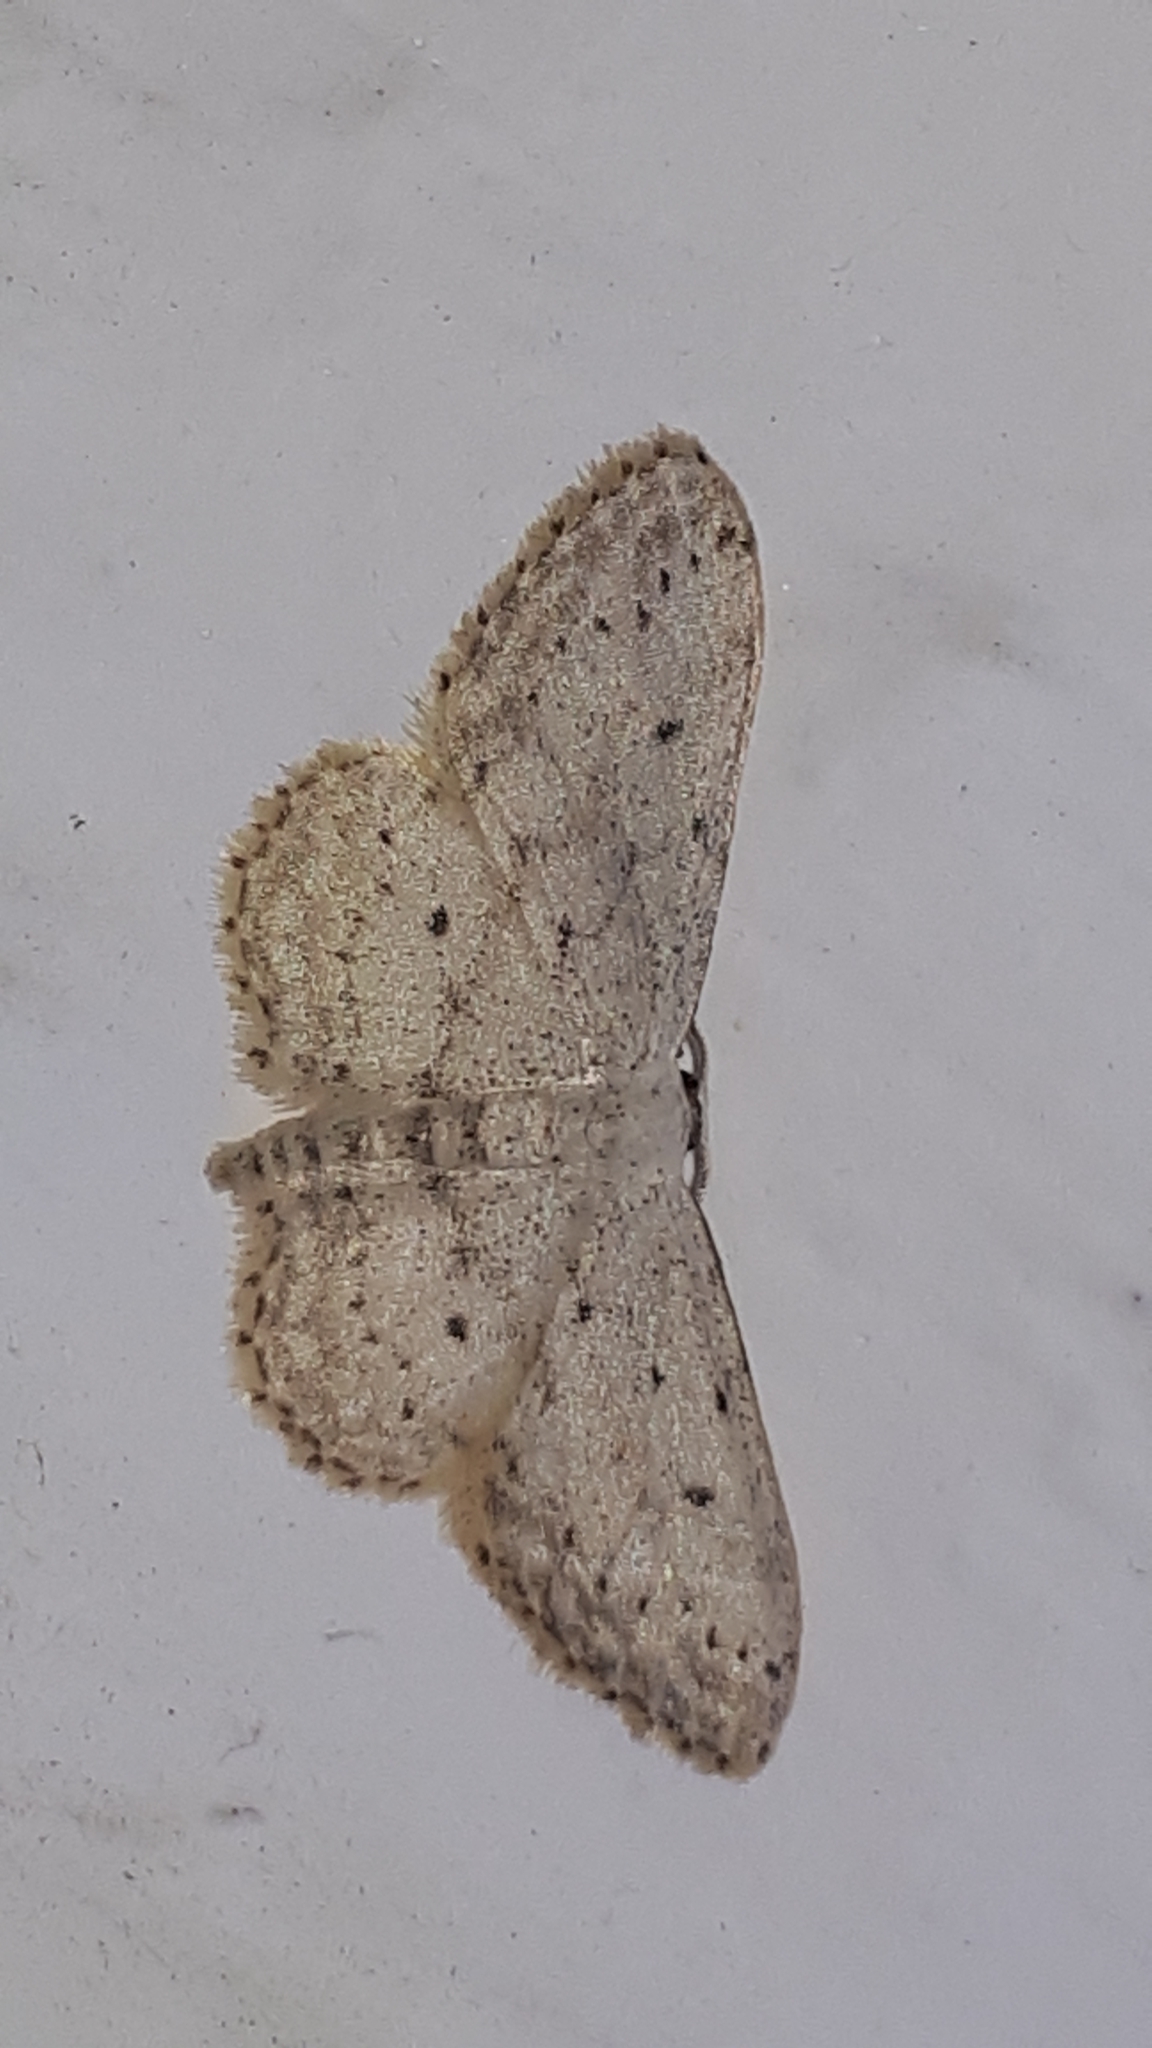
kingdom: Animalia
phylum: Arthropoda
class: Insecta
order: Lepidoptera
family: Geometridae
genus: Idaea
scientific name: Idaea seriata
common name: Small dusty wave
